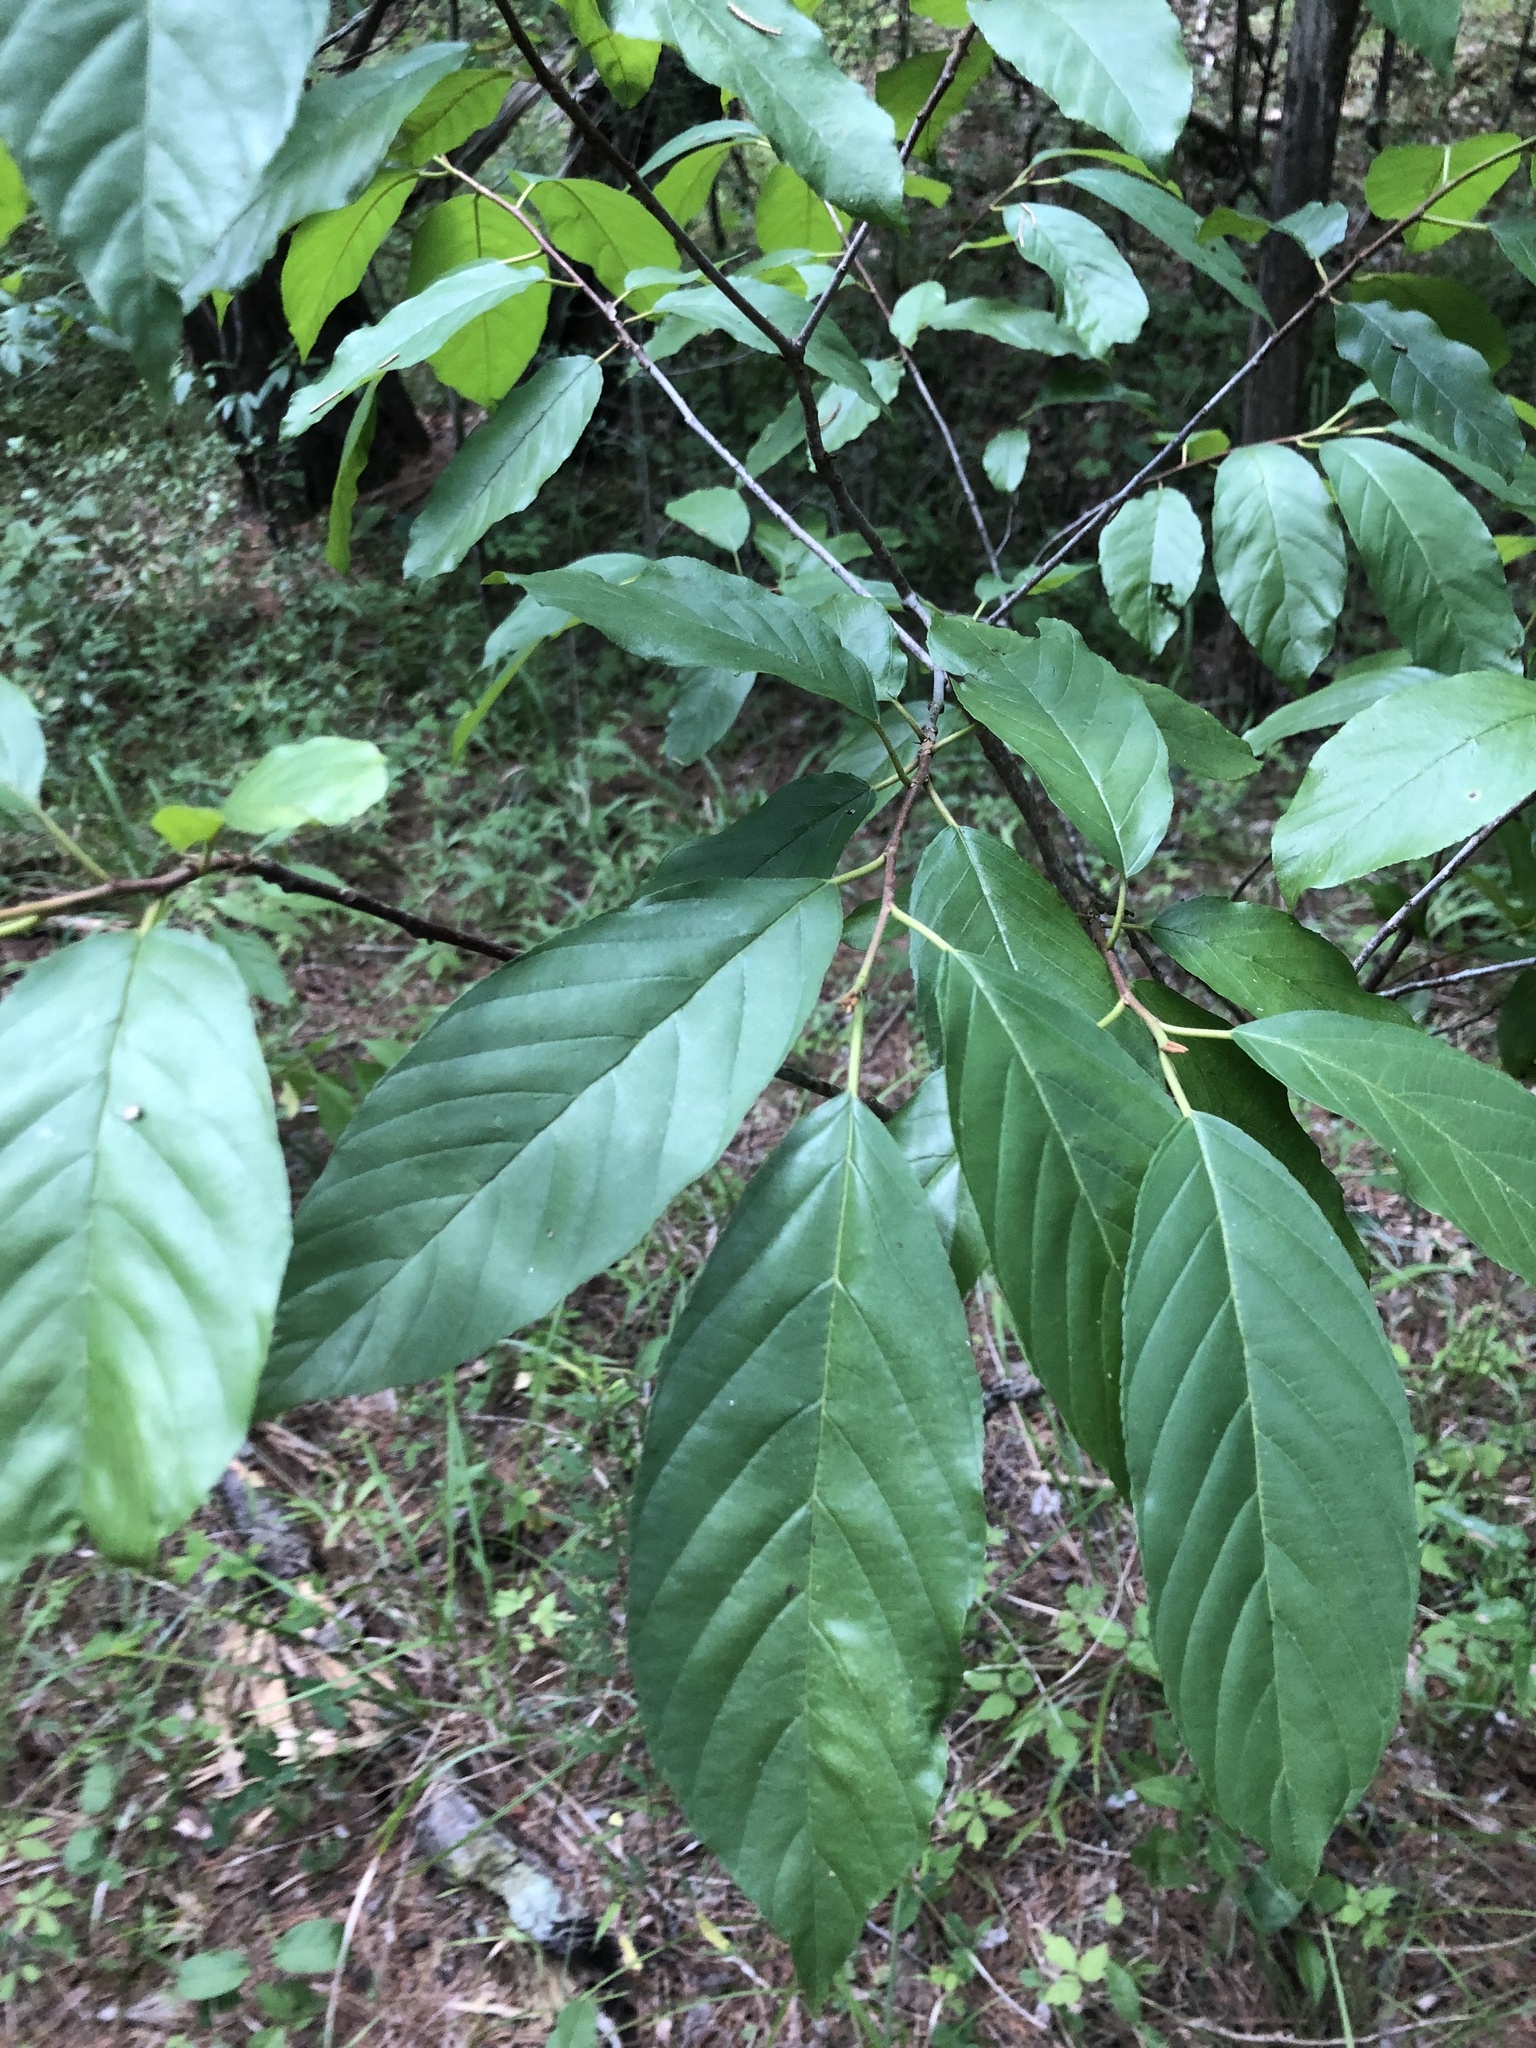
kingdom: Plantae
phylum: Tracheophyta
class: Magnoliopsida
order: Rosales
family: Rhamnaceae
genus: Frangula
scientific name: Frangula caroliniana
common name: Carolina buckthorn
